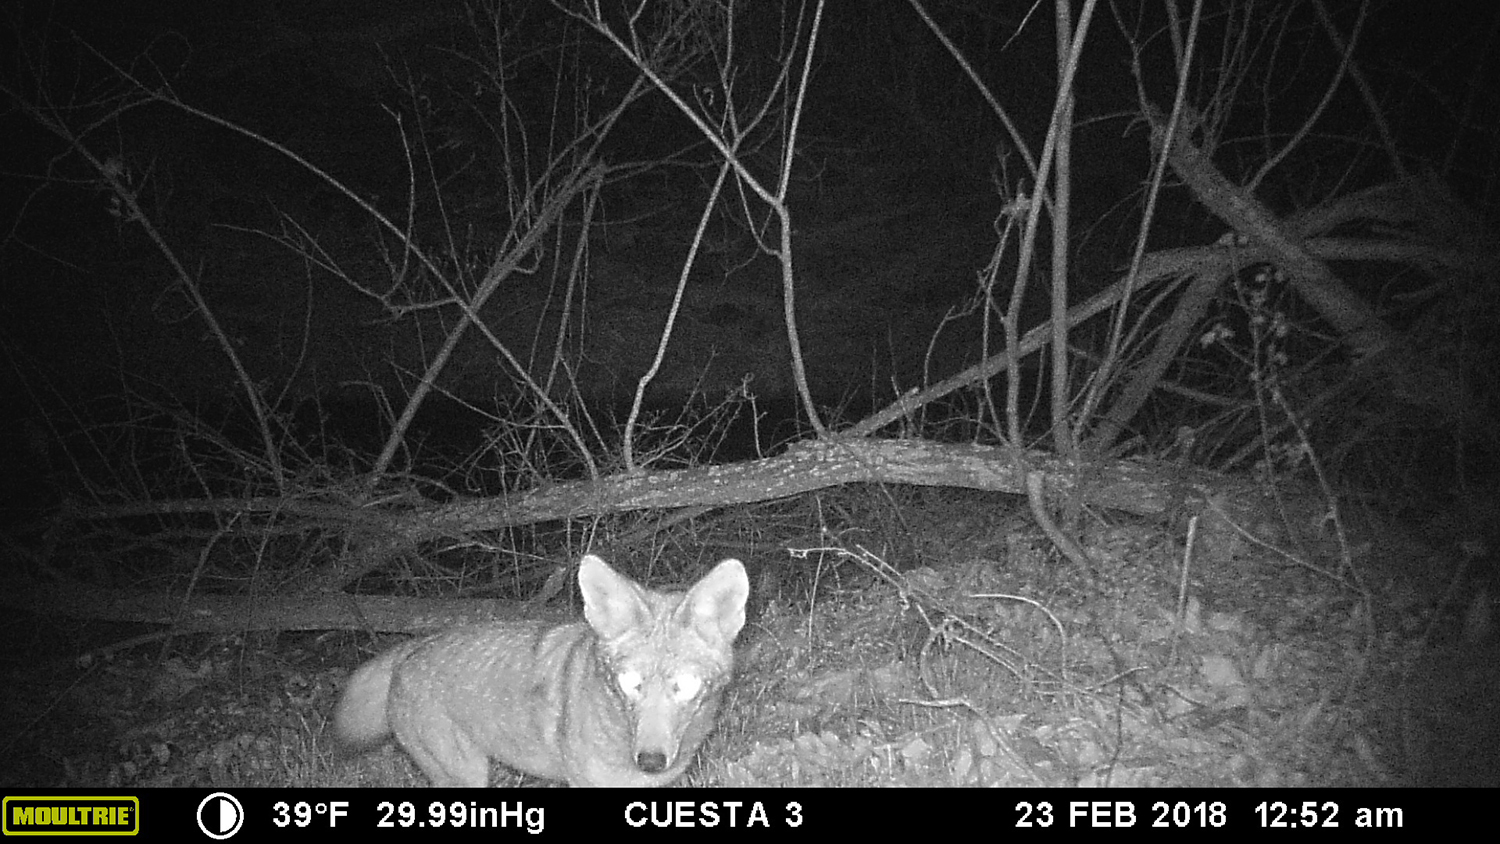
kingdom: Animalia
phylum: Chordata
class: Mammalia
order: Carnivora
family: Canidae
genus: Canis
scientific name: Canis latrans
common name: Coyote
